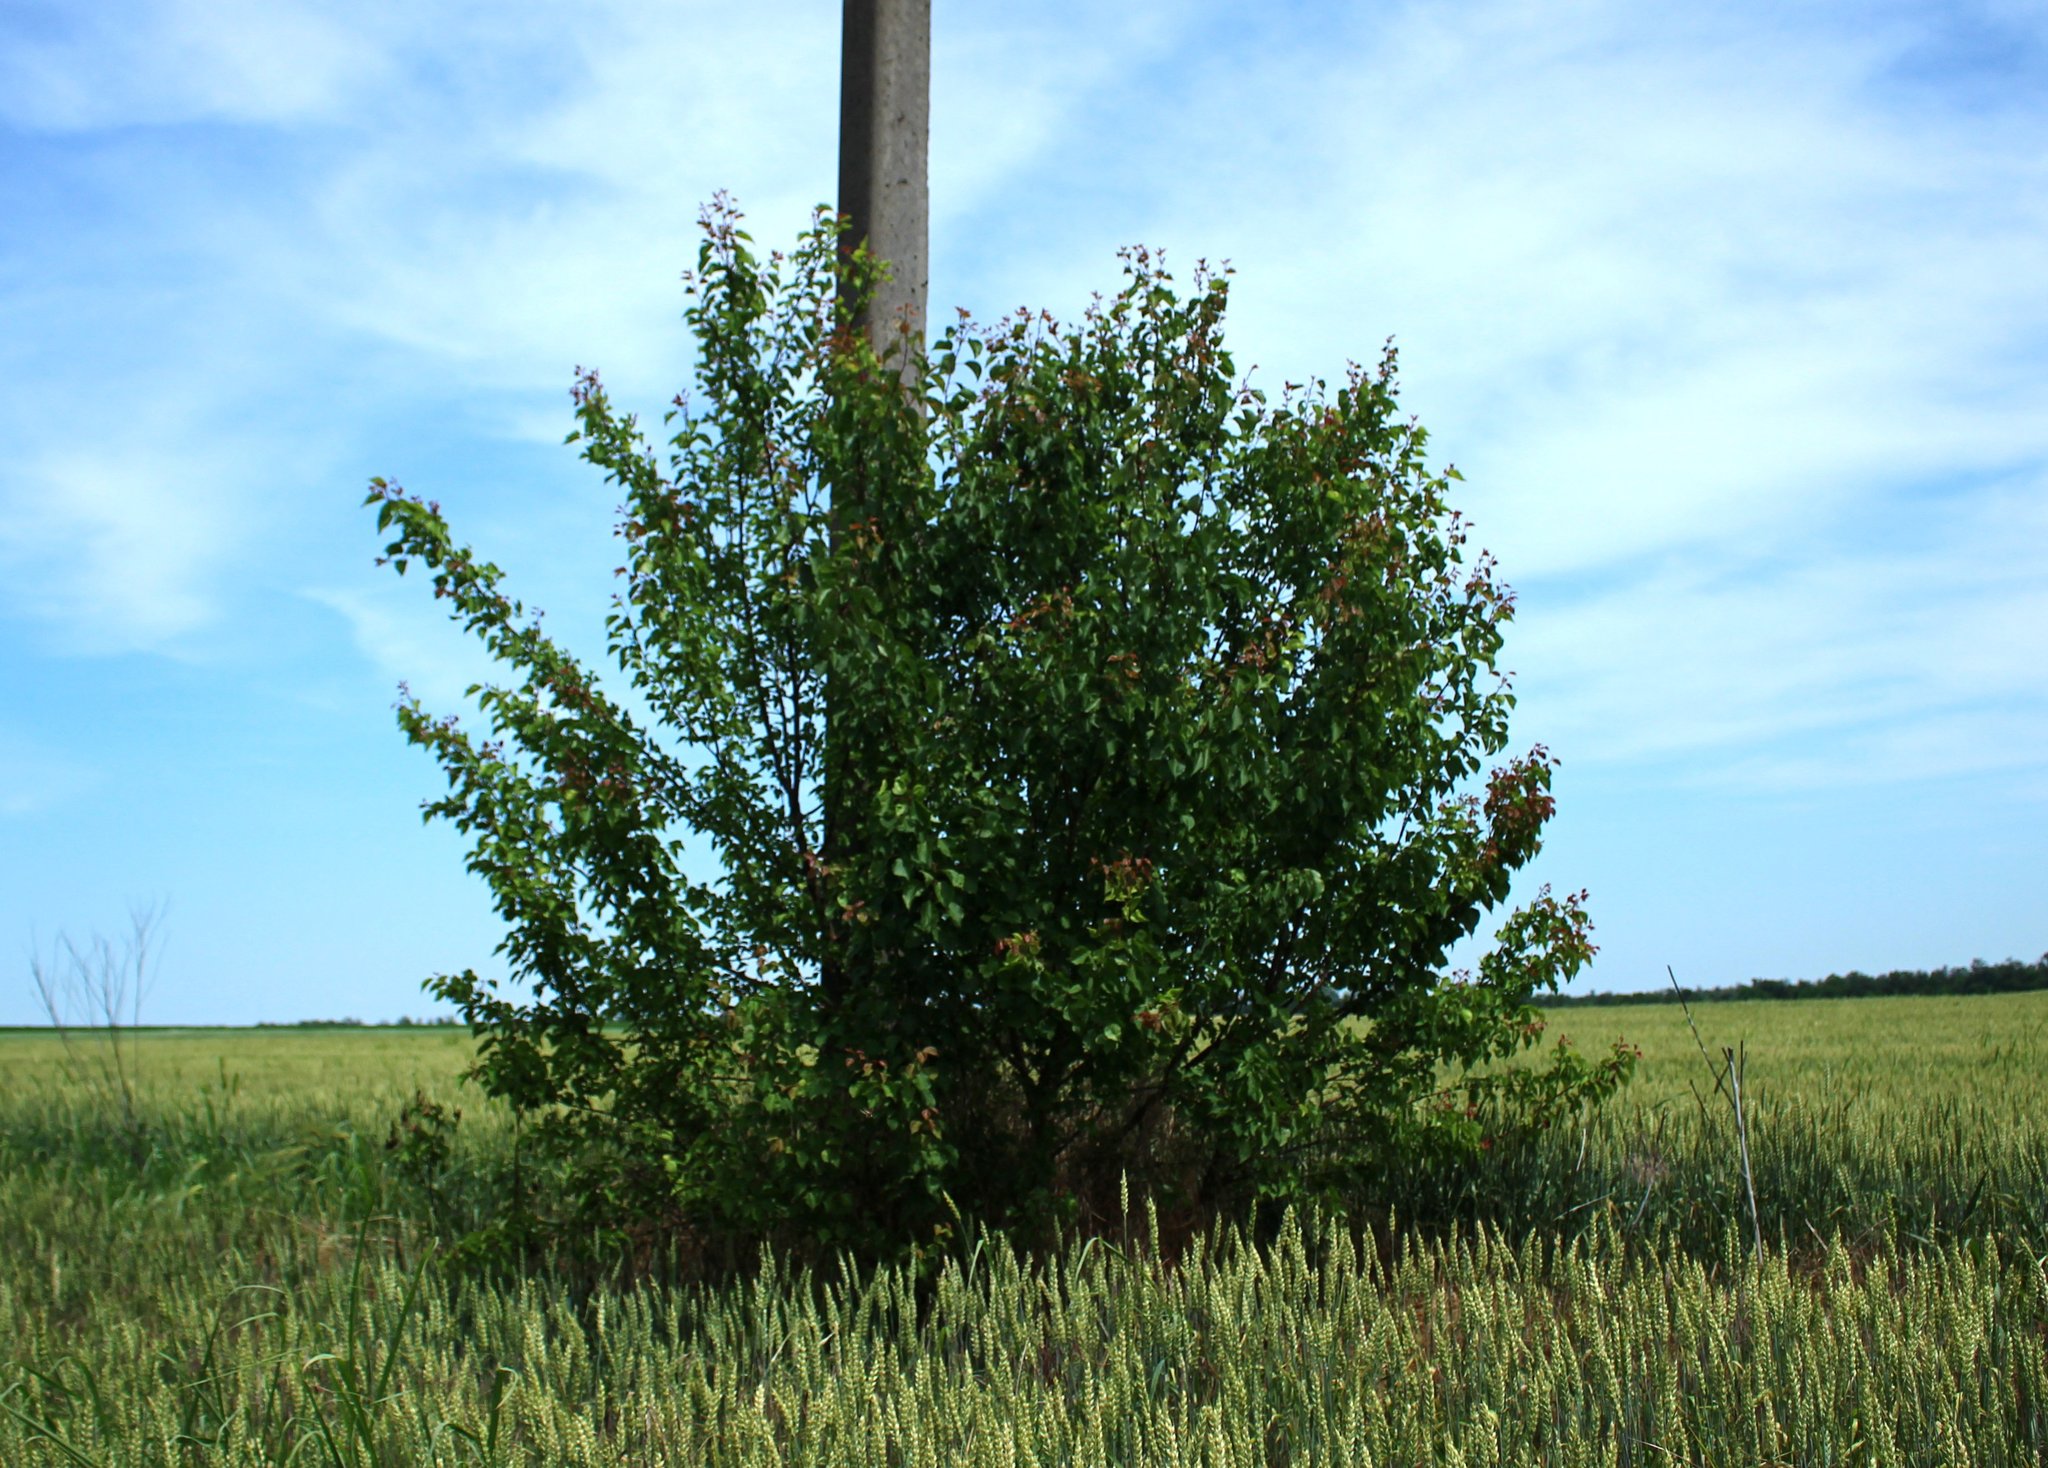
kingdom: Plantae
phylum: Tracheophyta
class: Magnoliopsida
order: Rosales
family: Rosaceae
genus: Prunus
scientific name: Prunus armeniaca
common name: Apricot
